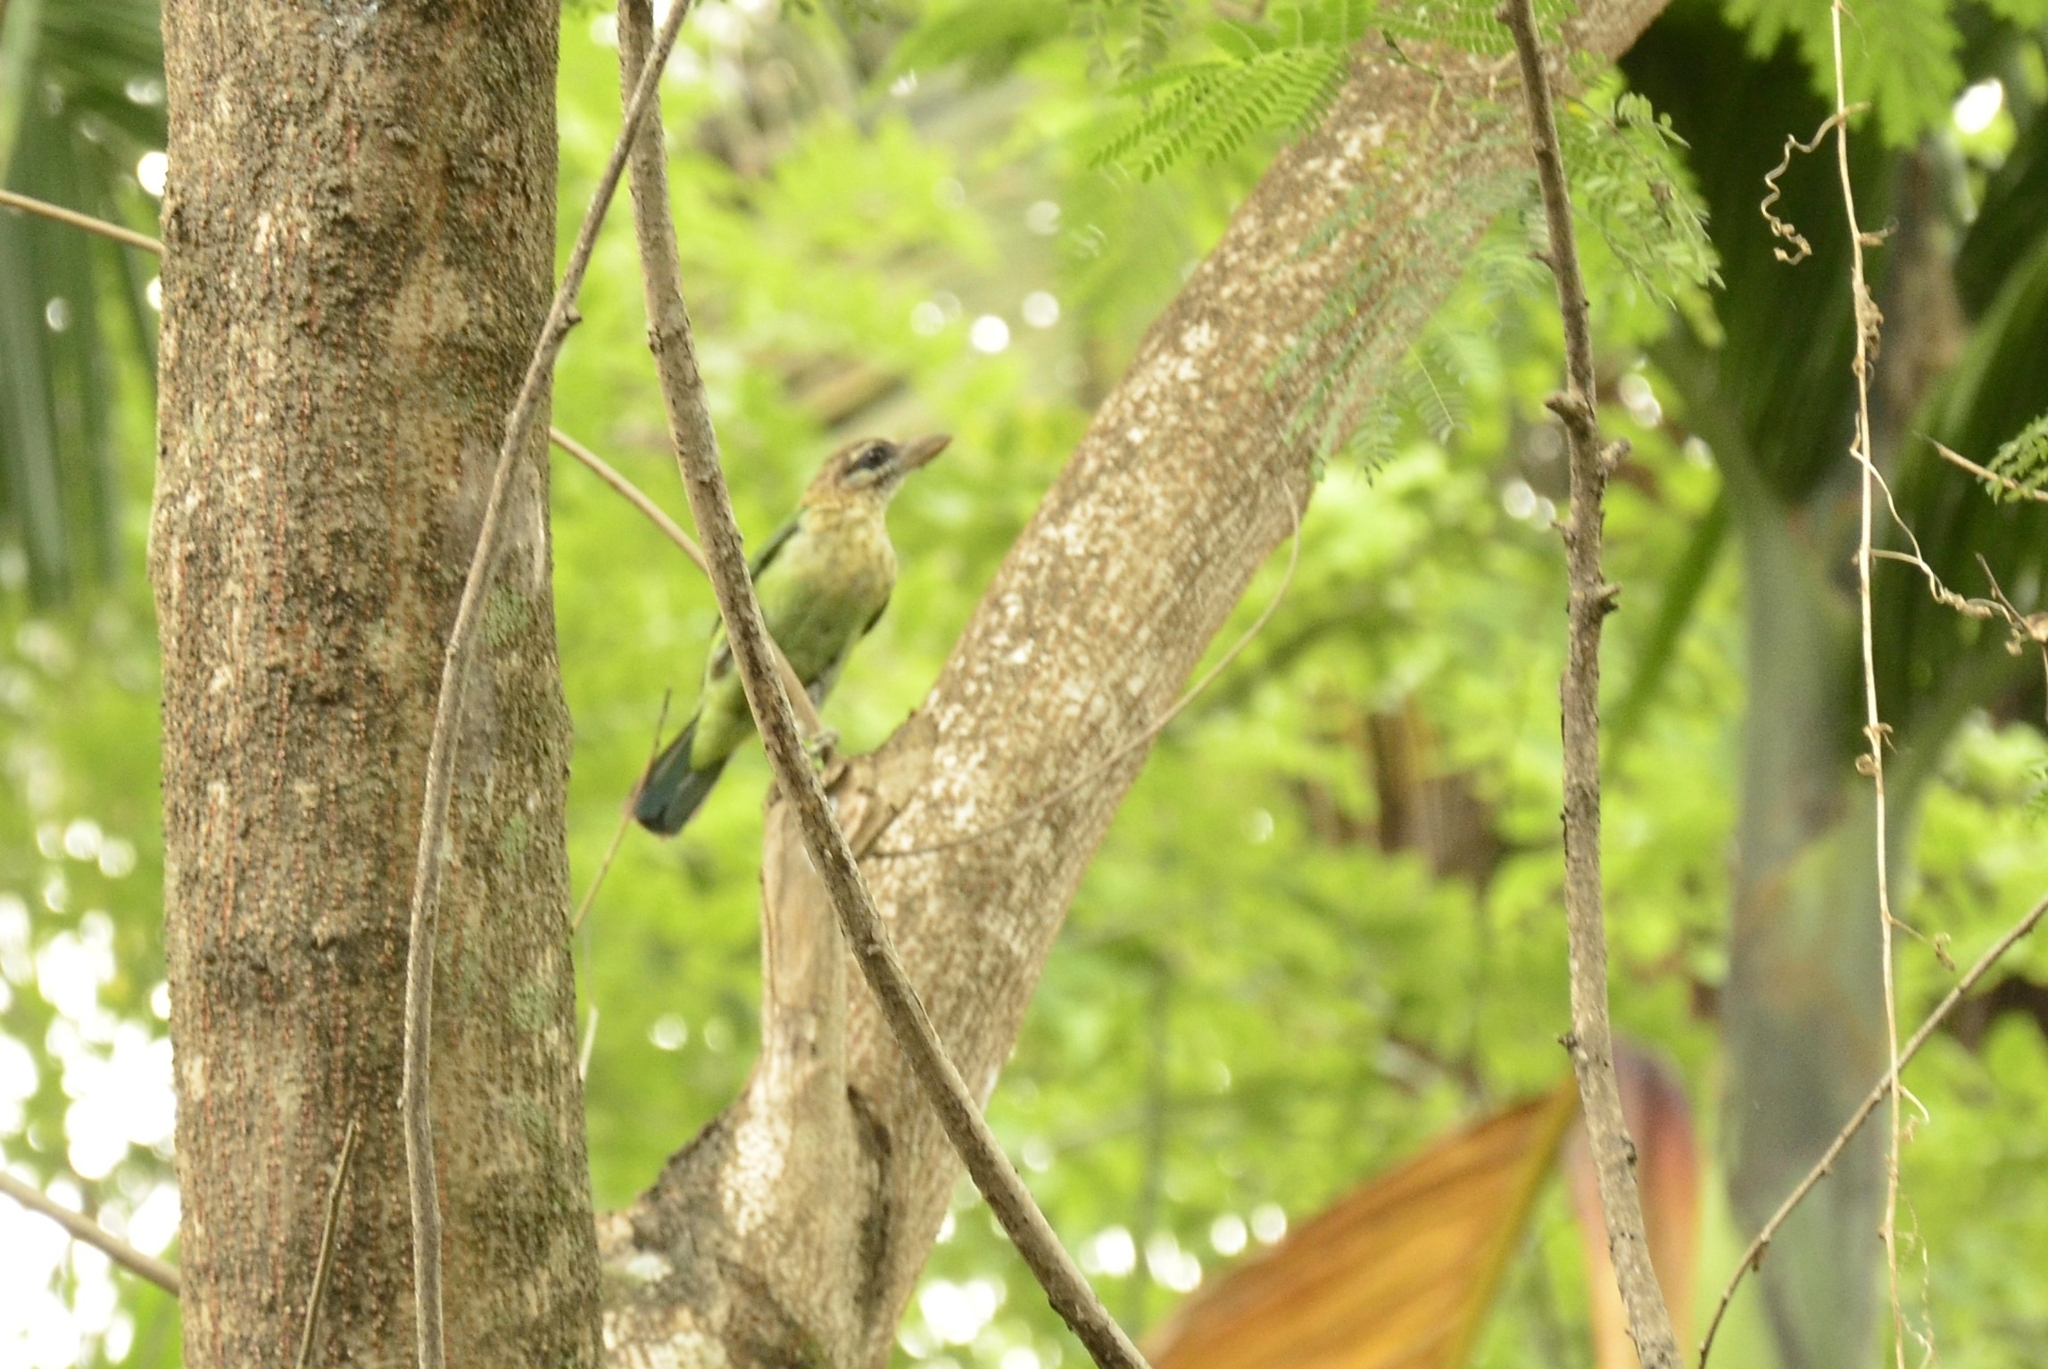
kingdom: Animalia
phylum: Chordata
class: Aves
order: Piciformes
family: Megalaimidae
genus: Psilopogon
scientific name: Psilopogon viridis
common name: White-cheeked barbet
